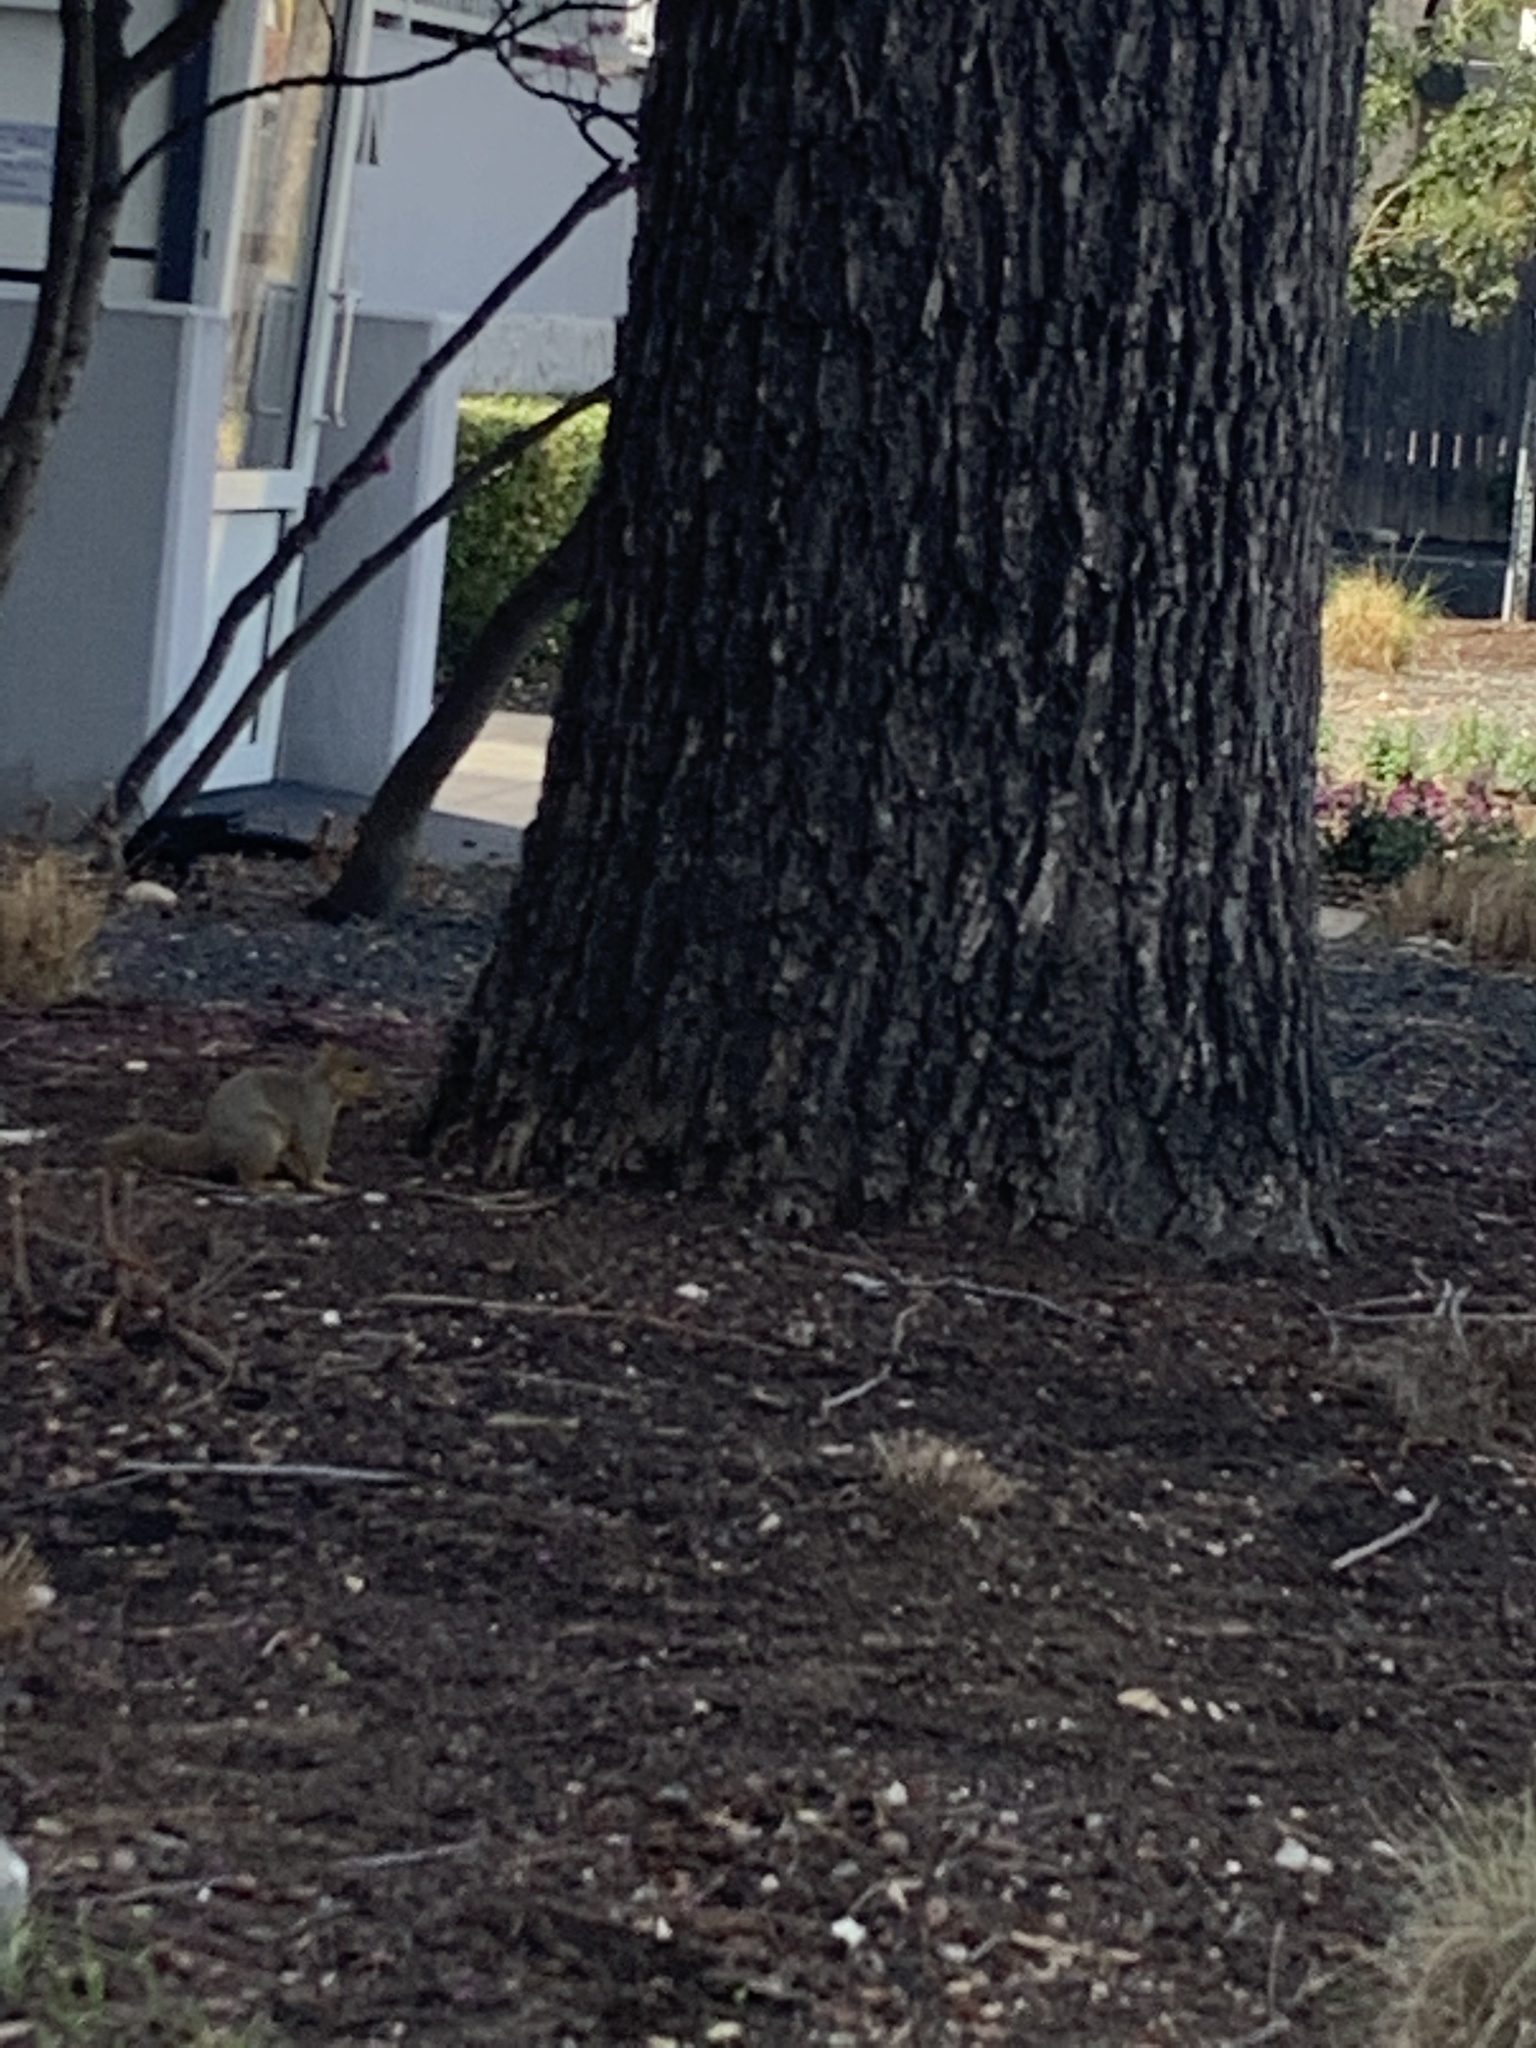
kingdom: Animalia
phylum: Chordata
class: Mammalia
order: Rodentia
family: Sciuridae
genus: Sciurus
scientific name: Sciurus niger
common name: Fox squirrel
